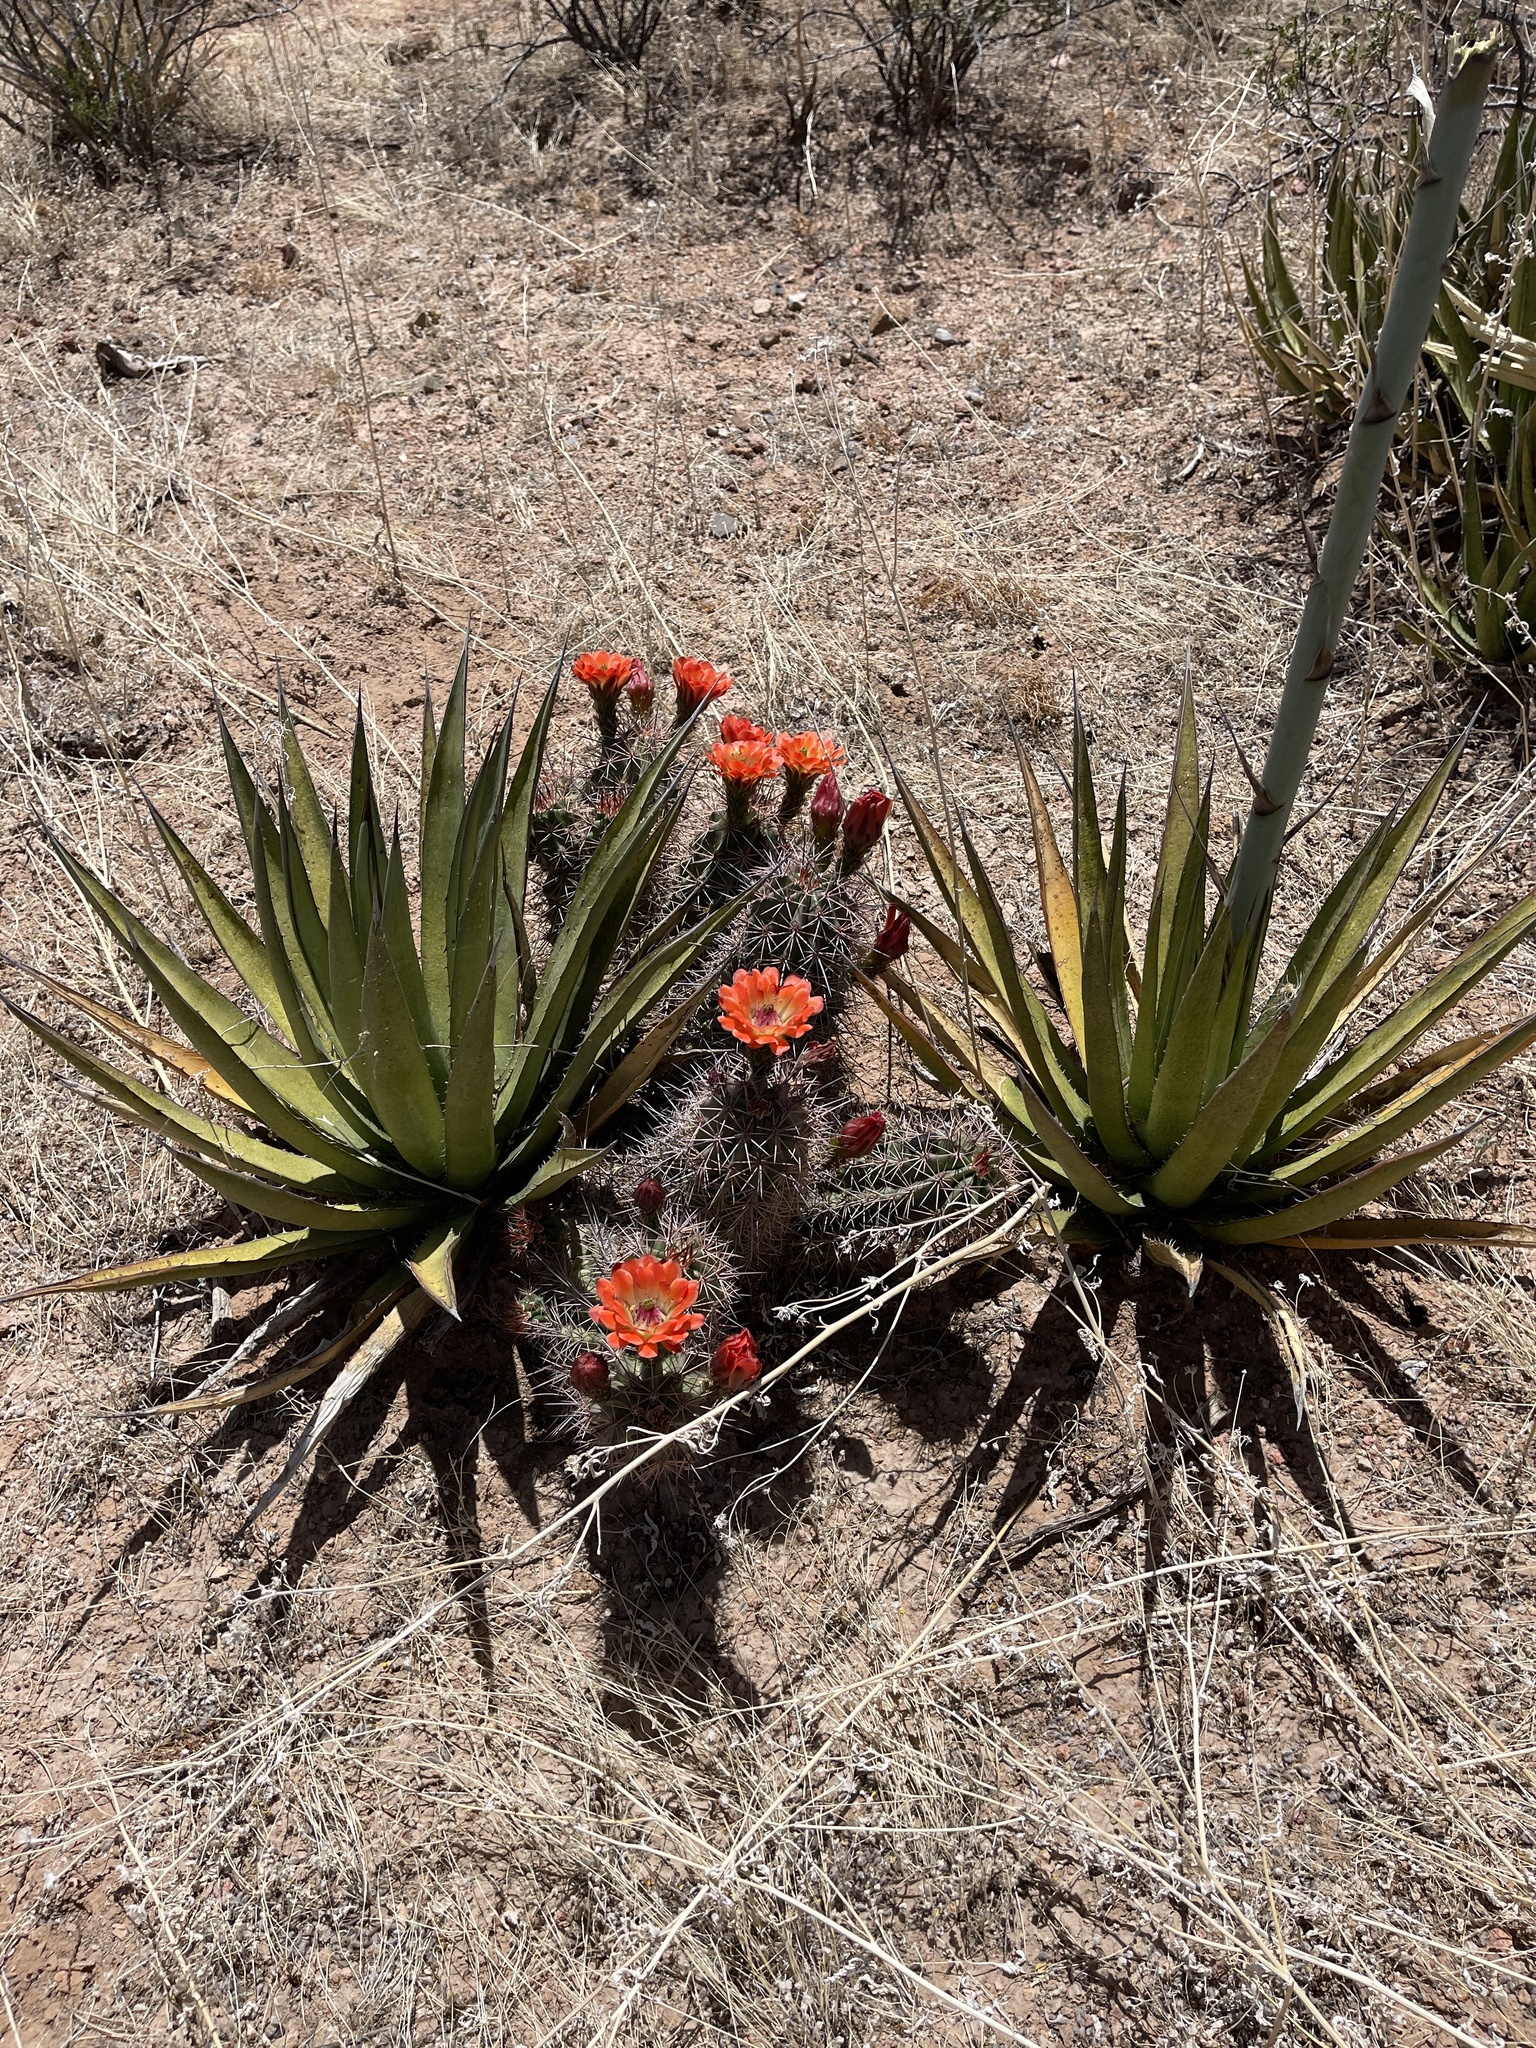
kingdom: Plantae
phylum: Tracheophyta
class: Magnoliopsida
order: Caryophyllales
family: Cactaceae
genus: Echinocereus
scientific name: Echinocereus coccineus
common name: Scarlet hedgehog cactus
